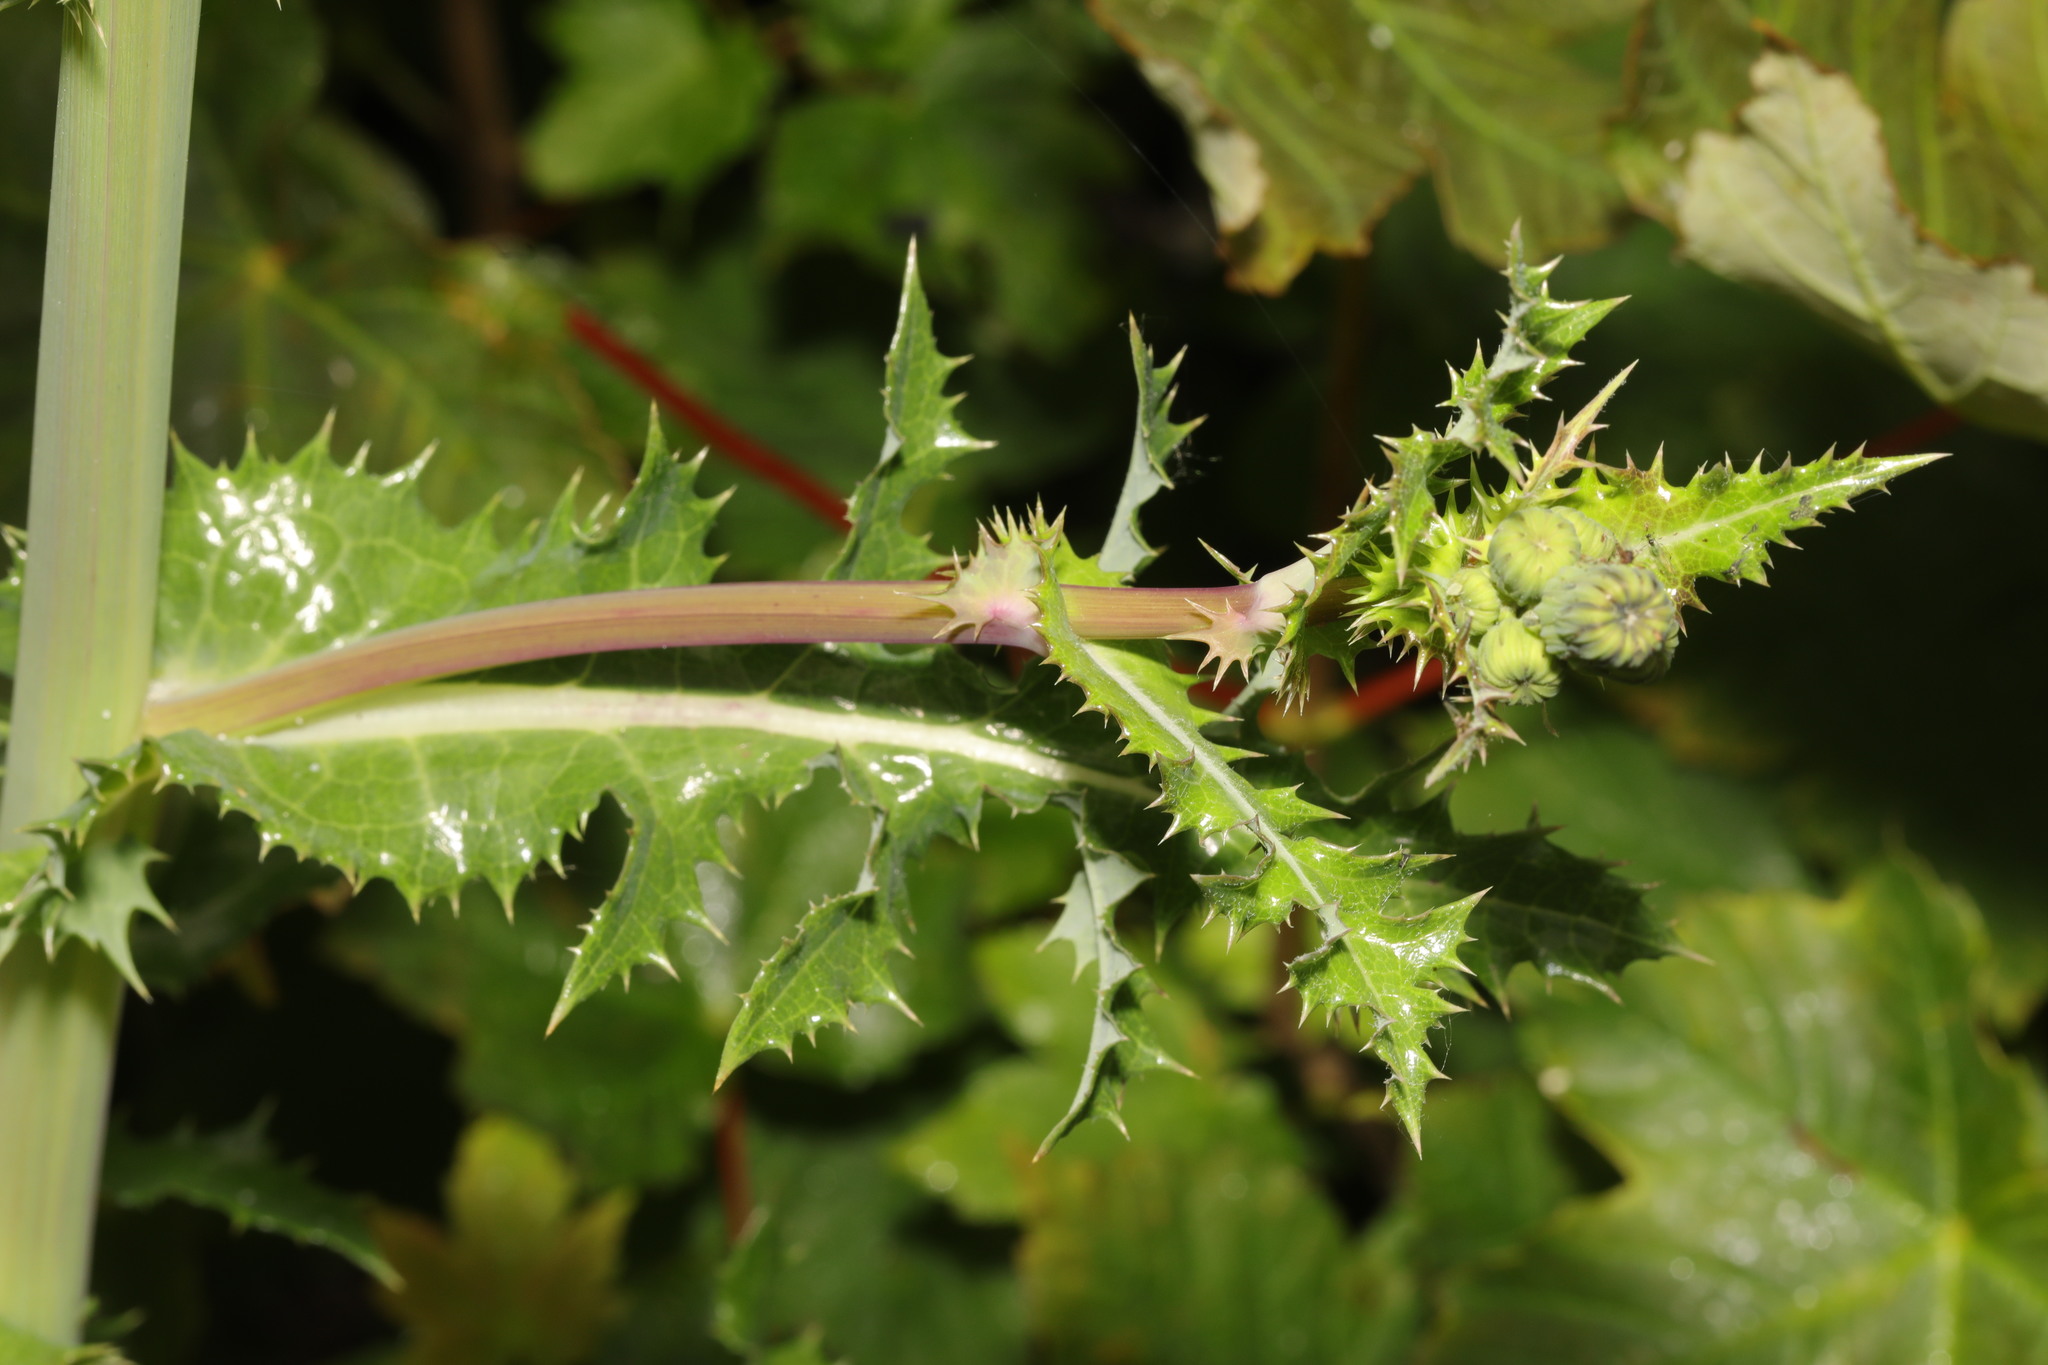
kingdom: Plantae
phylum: Tracheophyta
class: Magnoliopsida
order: Asterales
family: Asteraceae
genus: Sonchus
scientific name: Sonchus asper
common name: Prickly sow-thistle
